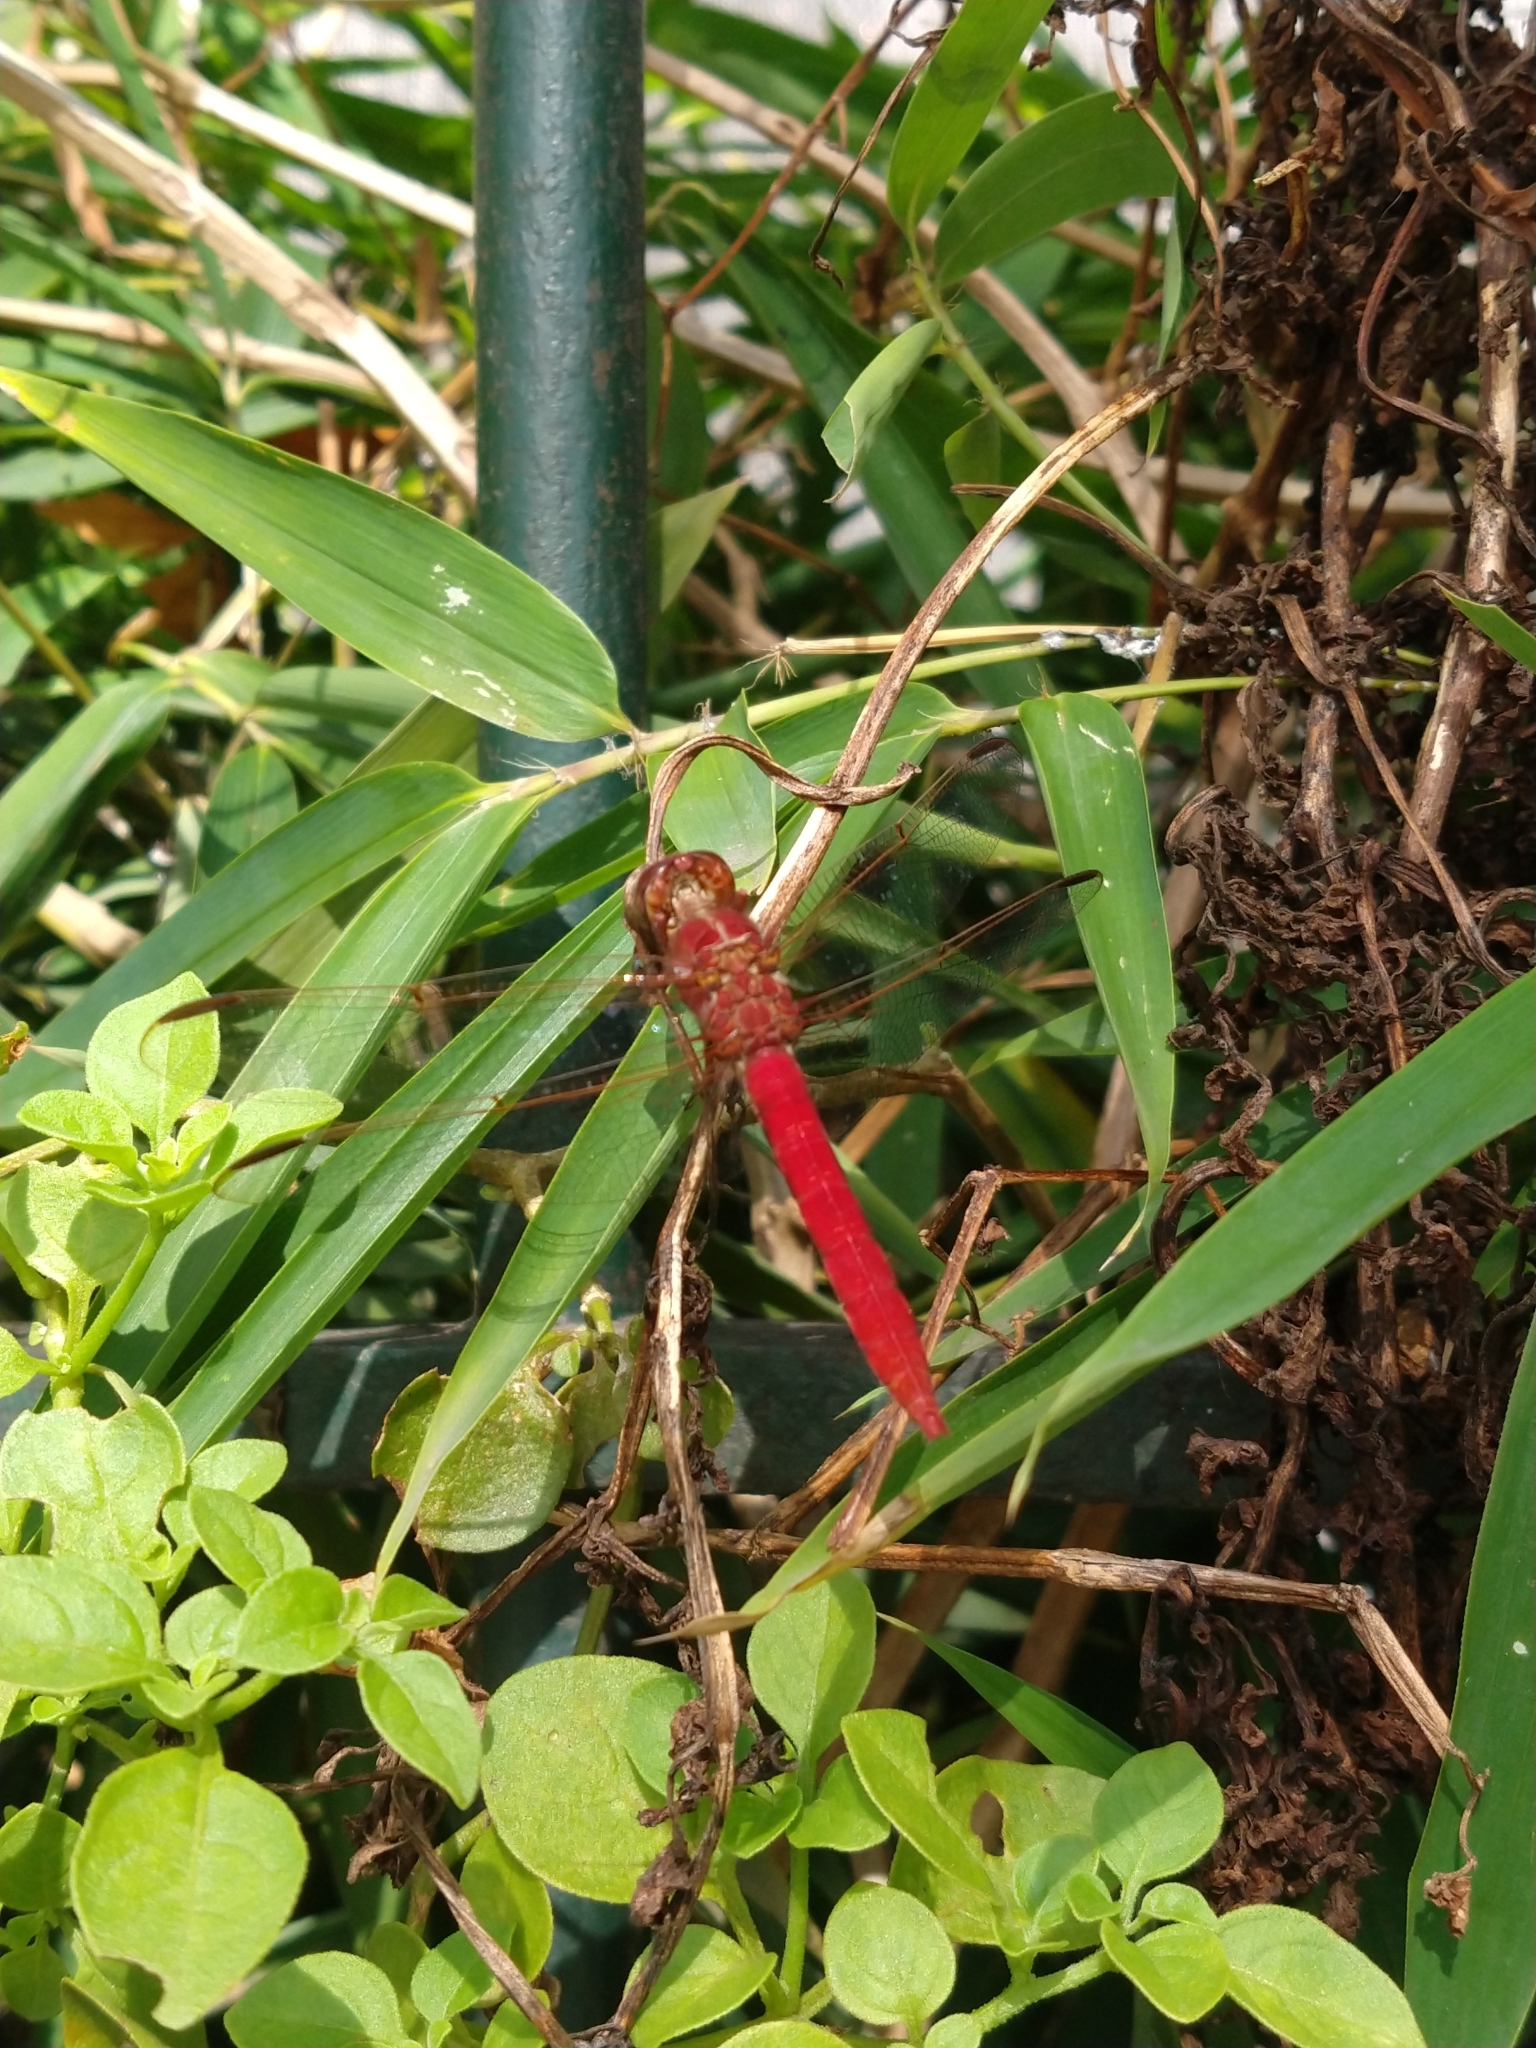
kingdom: Animalia
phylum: Arthropoda
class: Insecta
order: Odonata
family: Libellulidae
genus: Orthemis
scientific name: Orthemis nodiplaga
